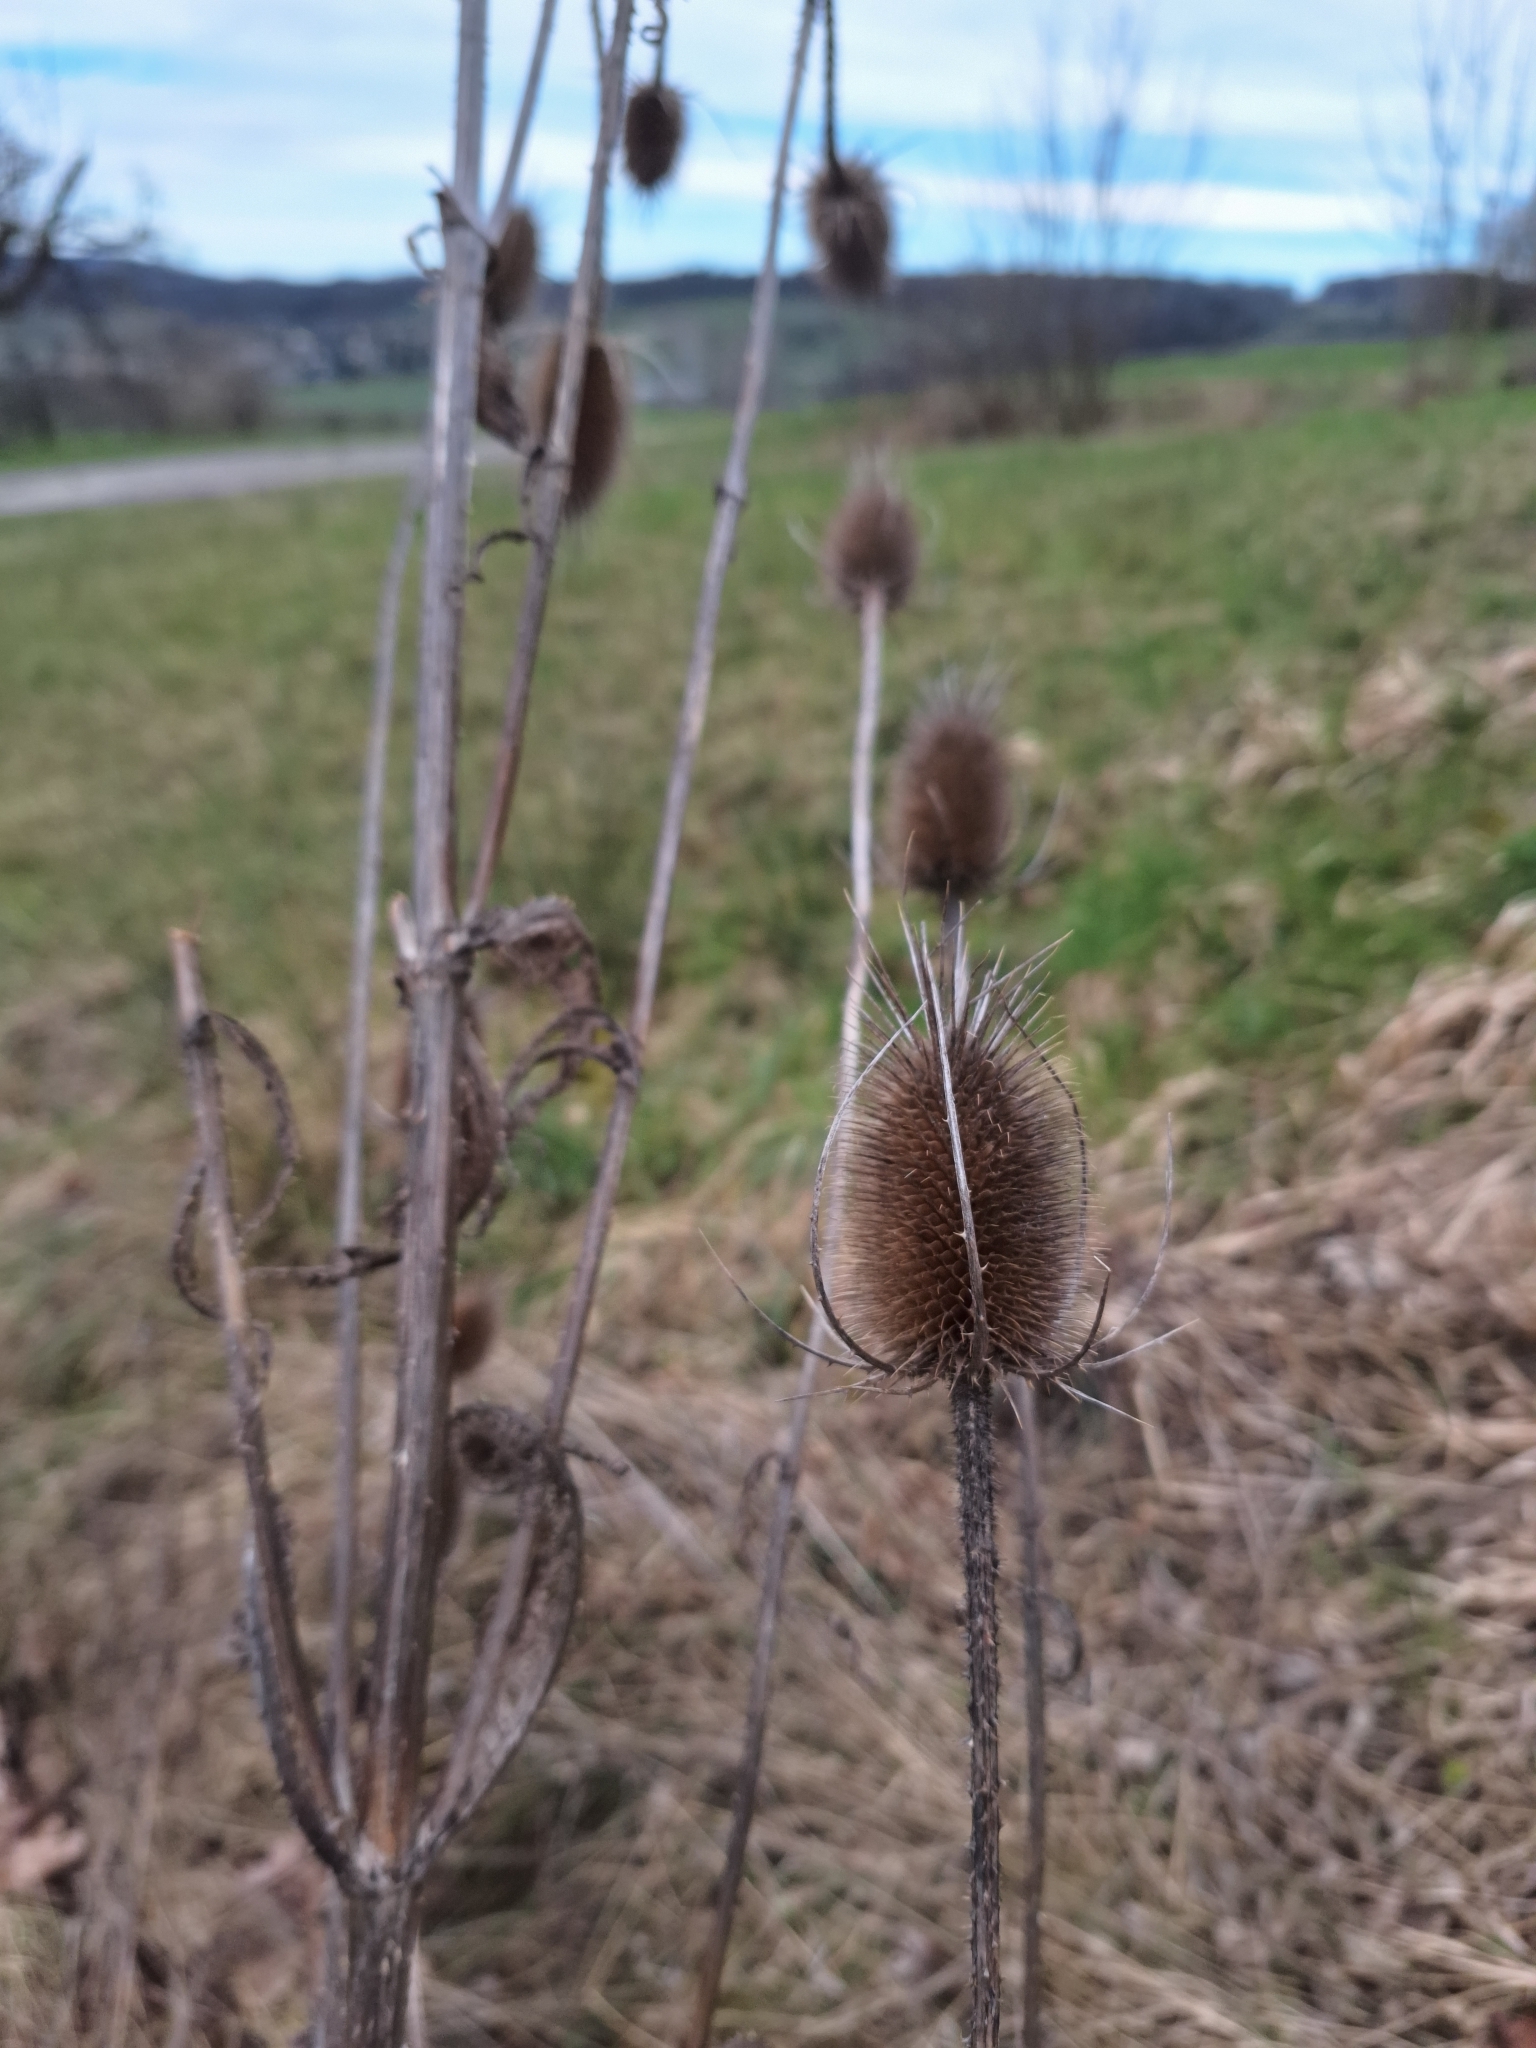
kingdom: Plantae
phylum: Tracheophyta
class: Magnoliopsida
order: Dipsacales
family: Caprifoliaceae
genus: Dipsacus
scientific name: Dipsacus fullonum
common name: Teasel
